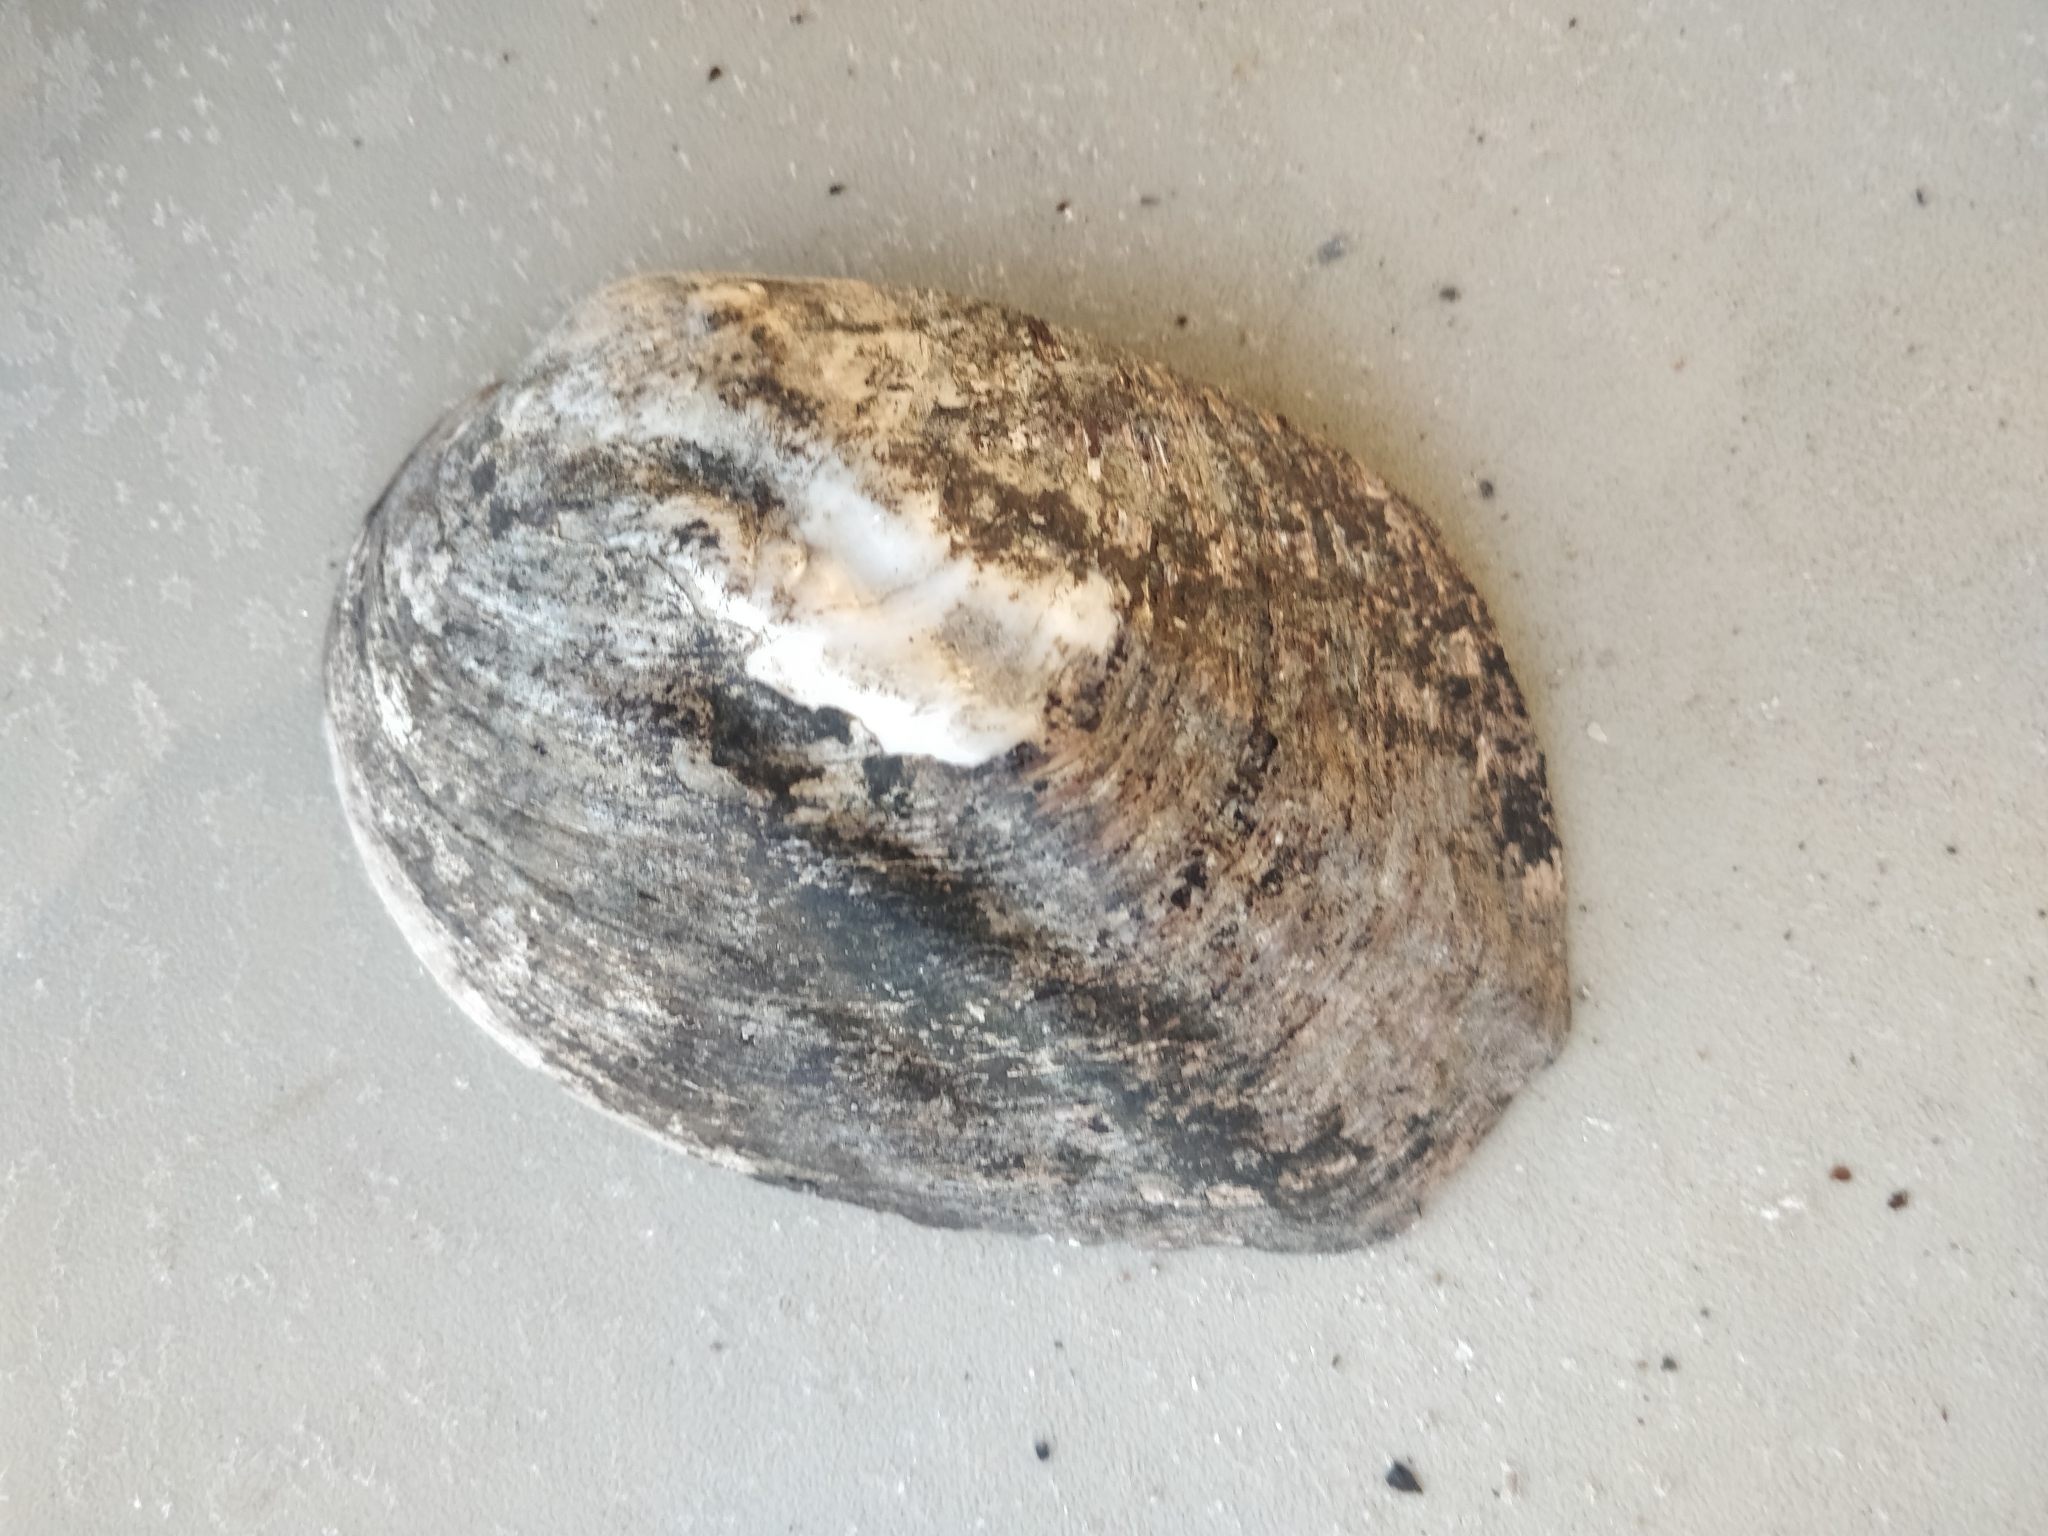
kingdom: Animalia
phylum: Mollusca
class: Bivalvia
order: Unionida
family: Unionidae
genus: Amblema
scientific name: Amblema plicata
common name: Threeridge
